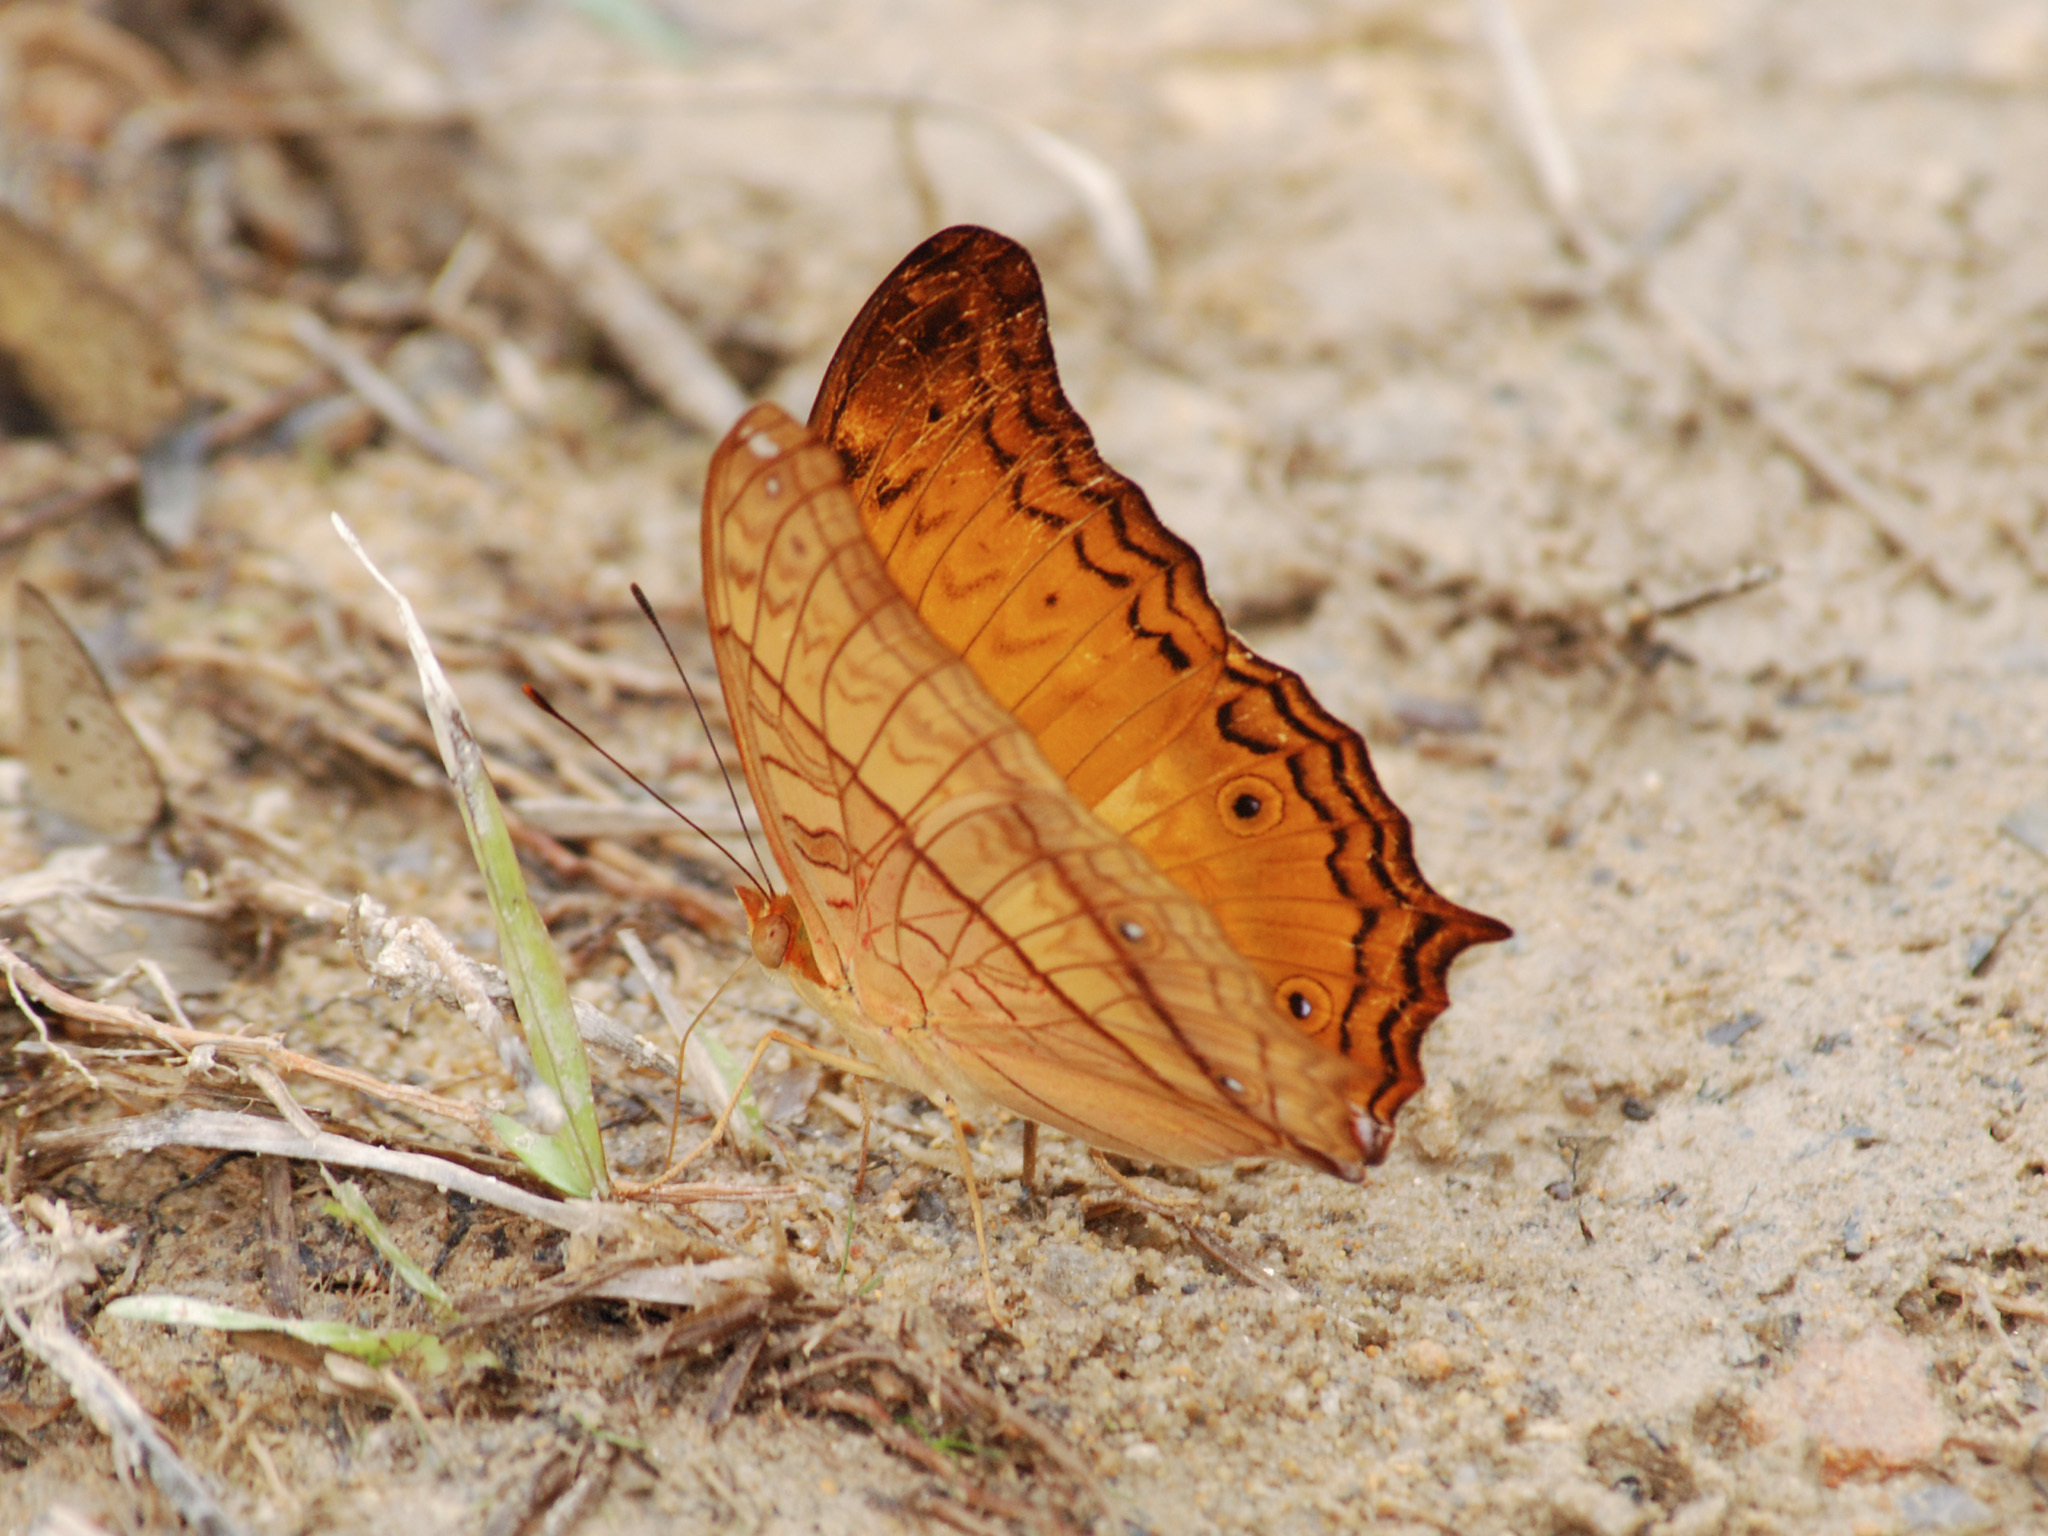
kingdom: Animalia
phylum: Arthropoda
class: Insecta
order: Lepidoptera
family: Nymphalidae
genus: Vindula
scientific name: Vindula deione
